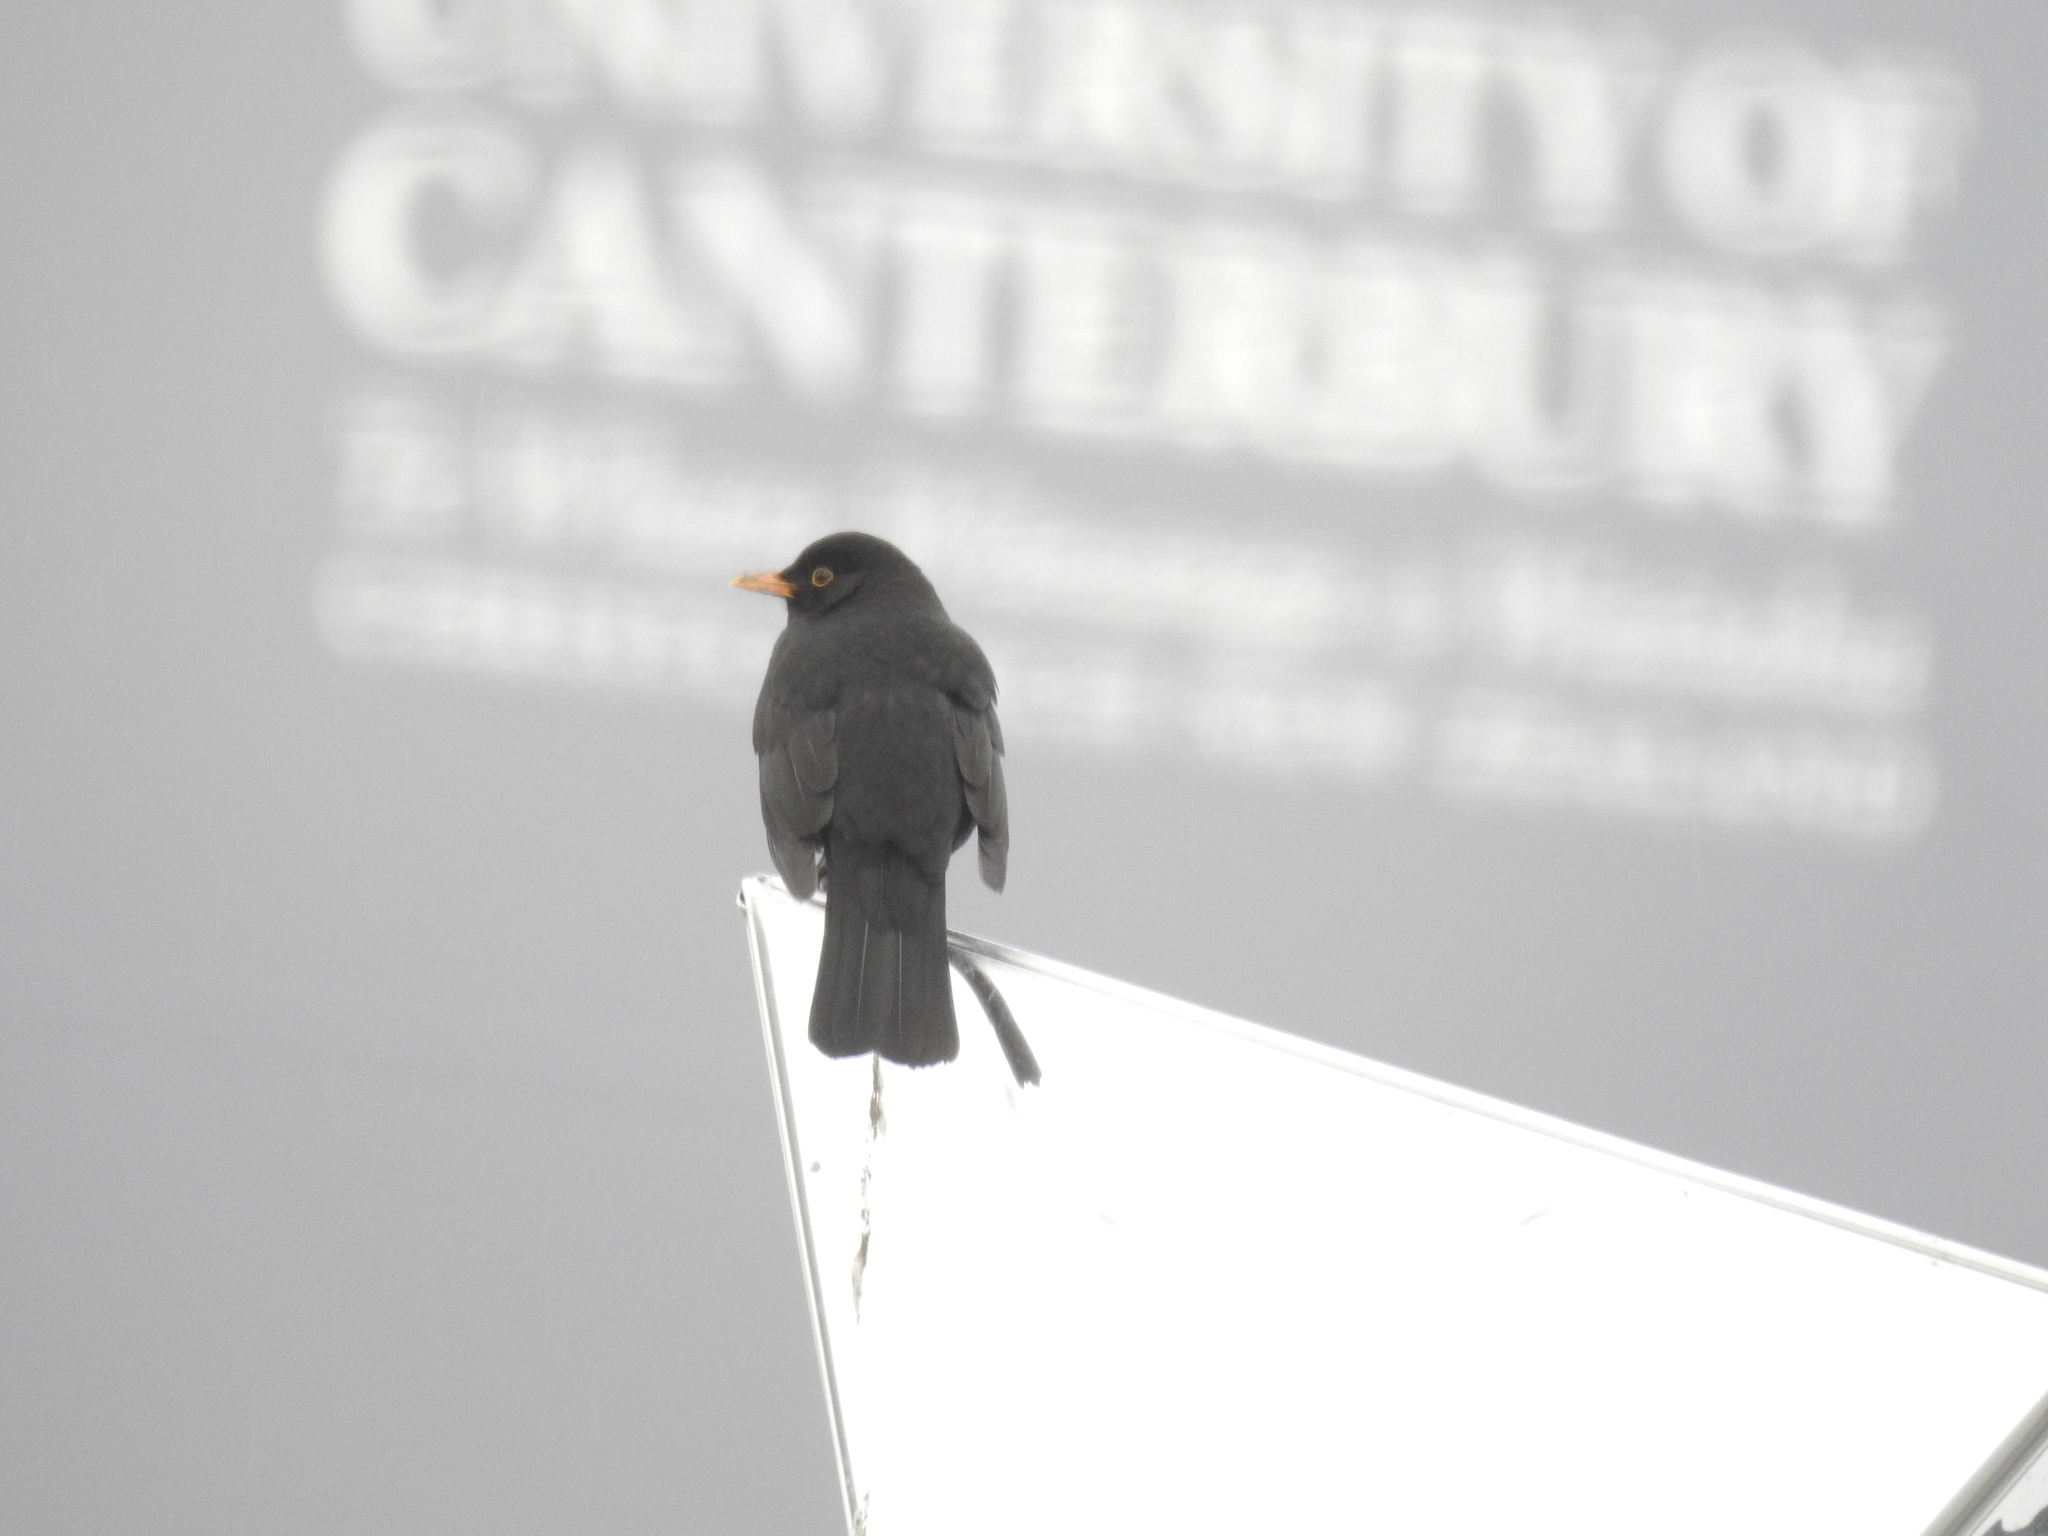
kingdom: Animalia
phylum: Chordata
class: Aves
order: Passeriformes
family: Turdidae
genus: Turdus
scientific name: Turdus merula
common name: Common blackbird
